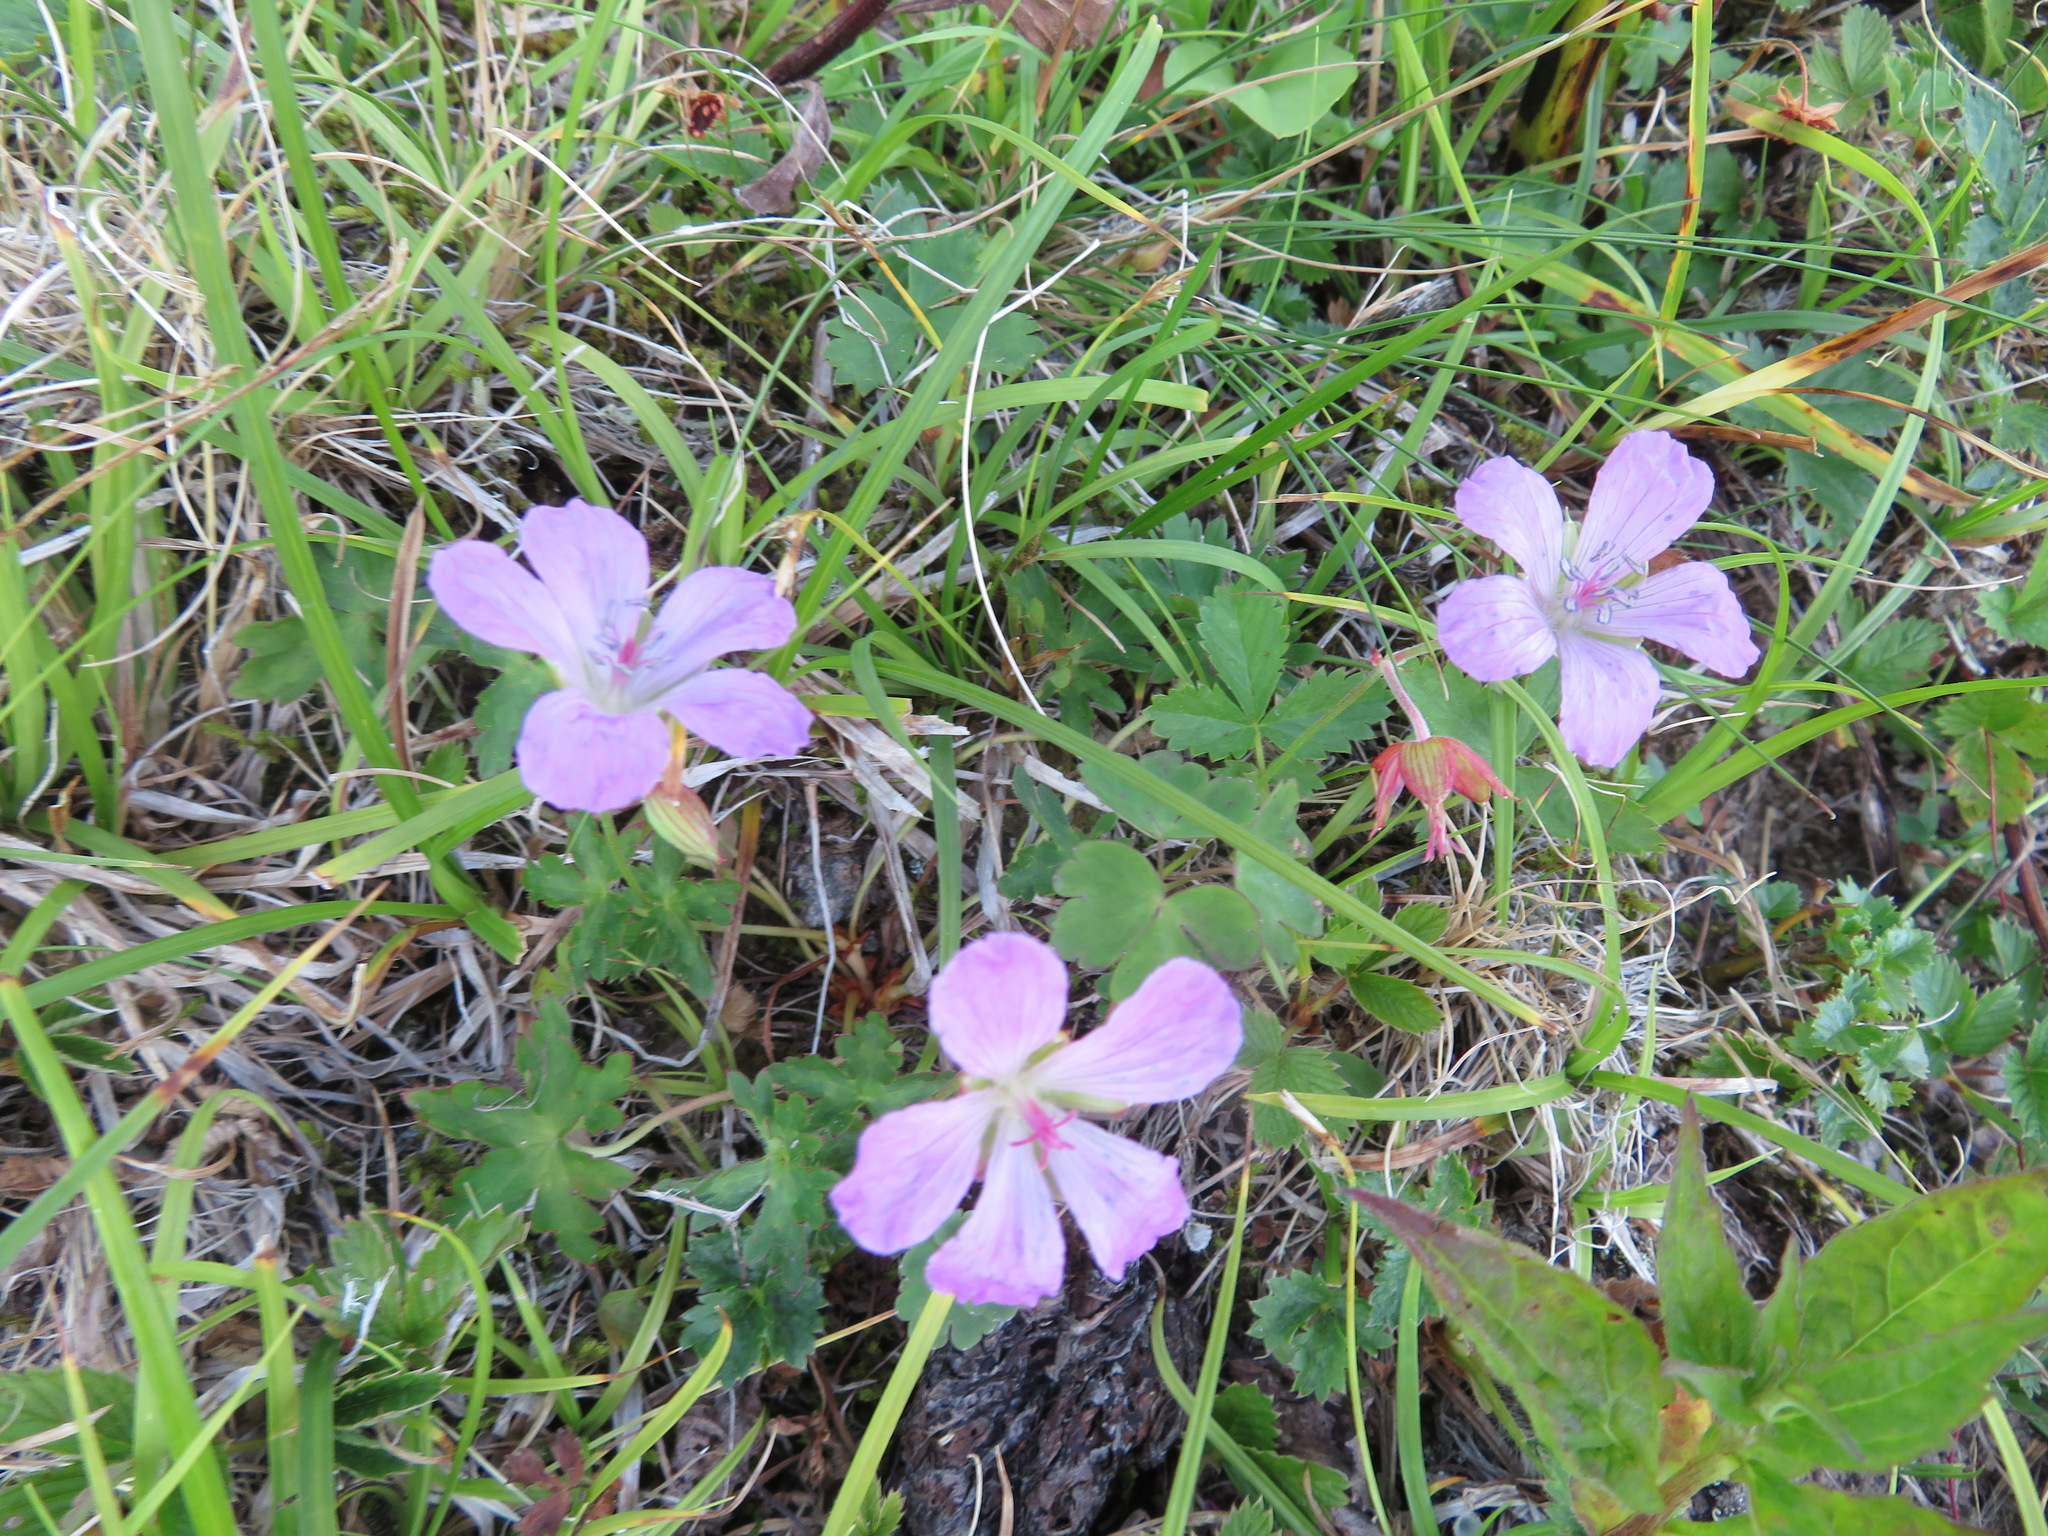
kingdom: Plantae
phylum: Tracheophyta
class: Magnoliopsida
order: Geraniales
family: Geraniaceae
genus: Geranium
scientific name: Geranium yesoense
